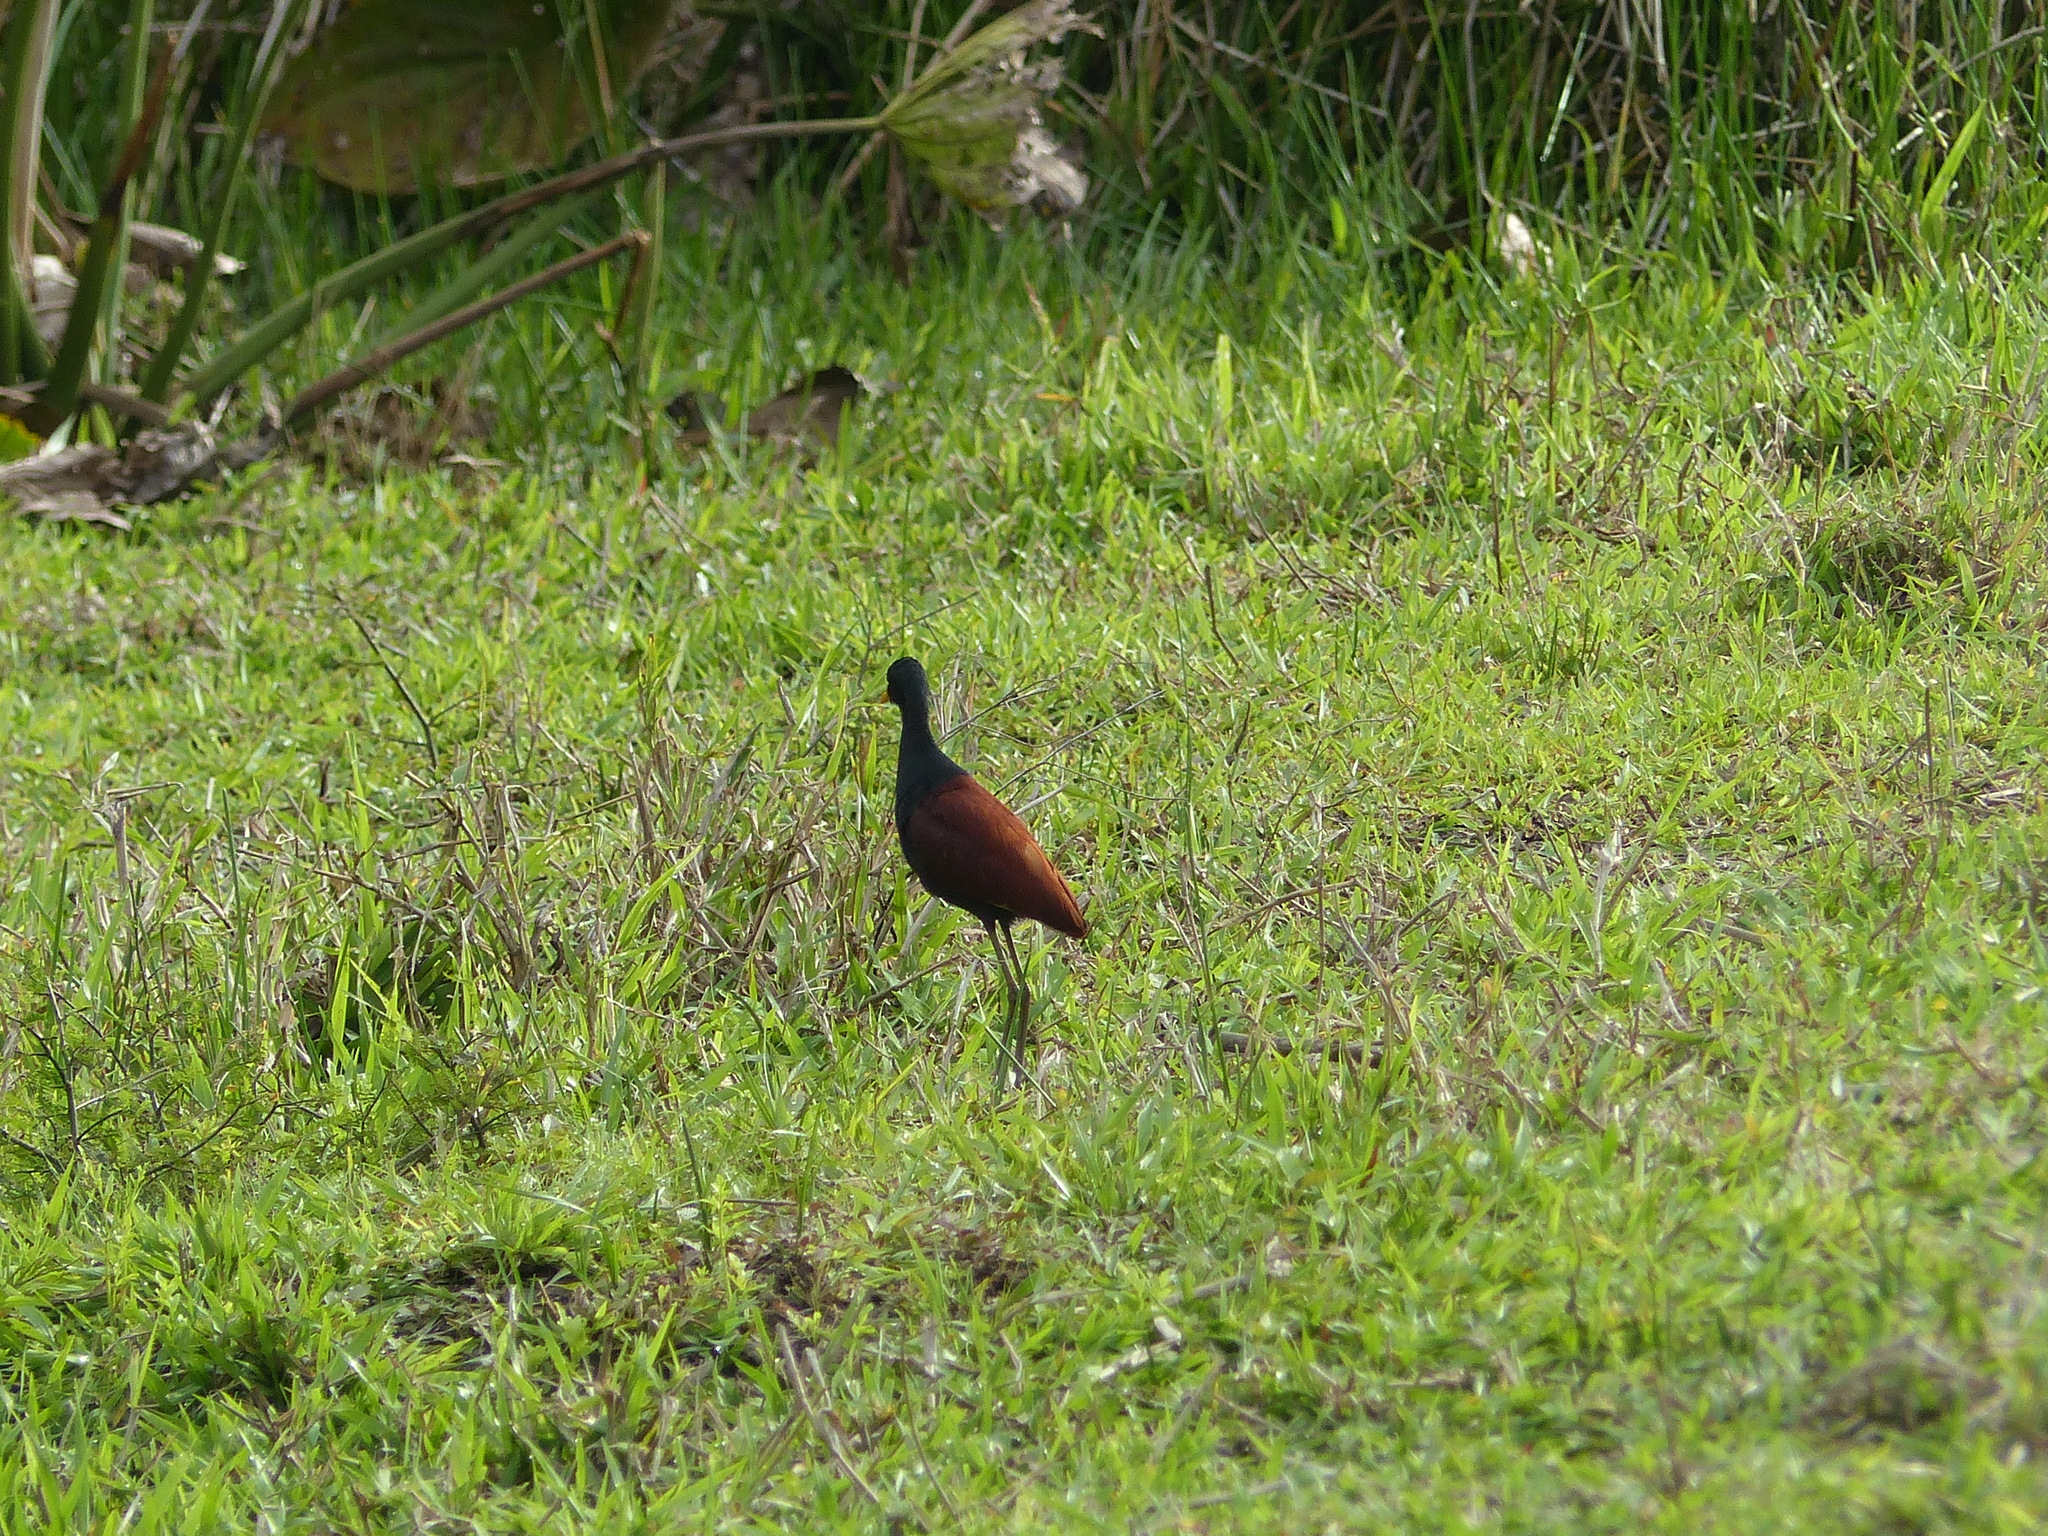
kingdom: Animalia
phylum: Chordata
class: Aves
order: Charadriiformes
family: Jacanidae
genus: Jacana
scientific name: Jacana jacana
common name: Wattled jacana
